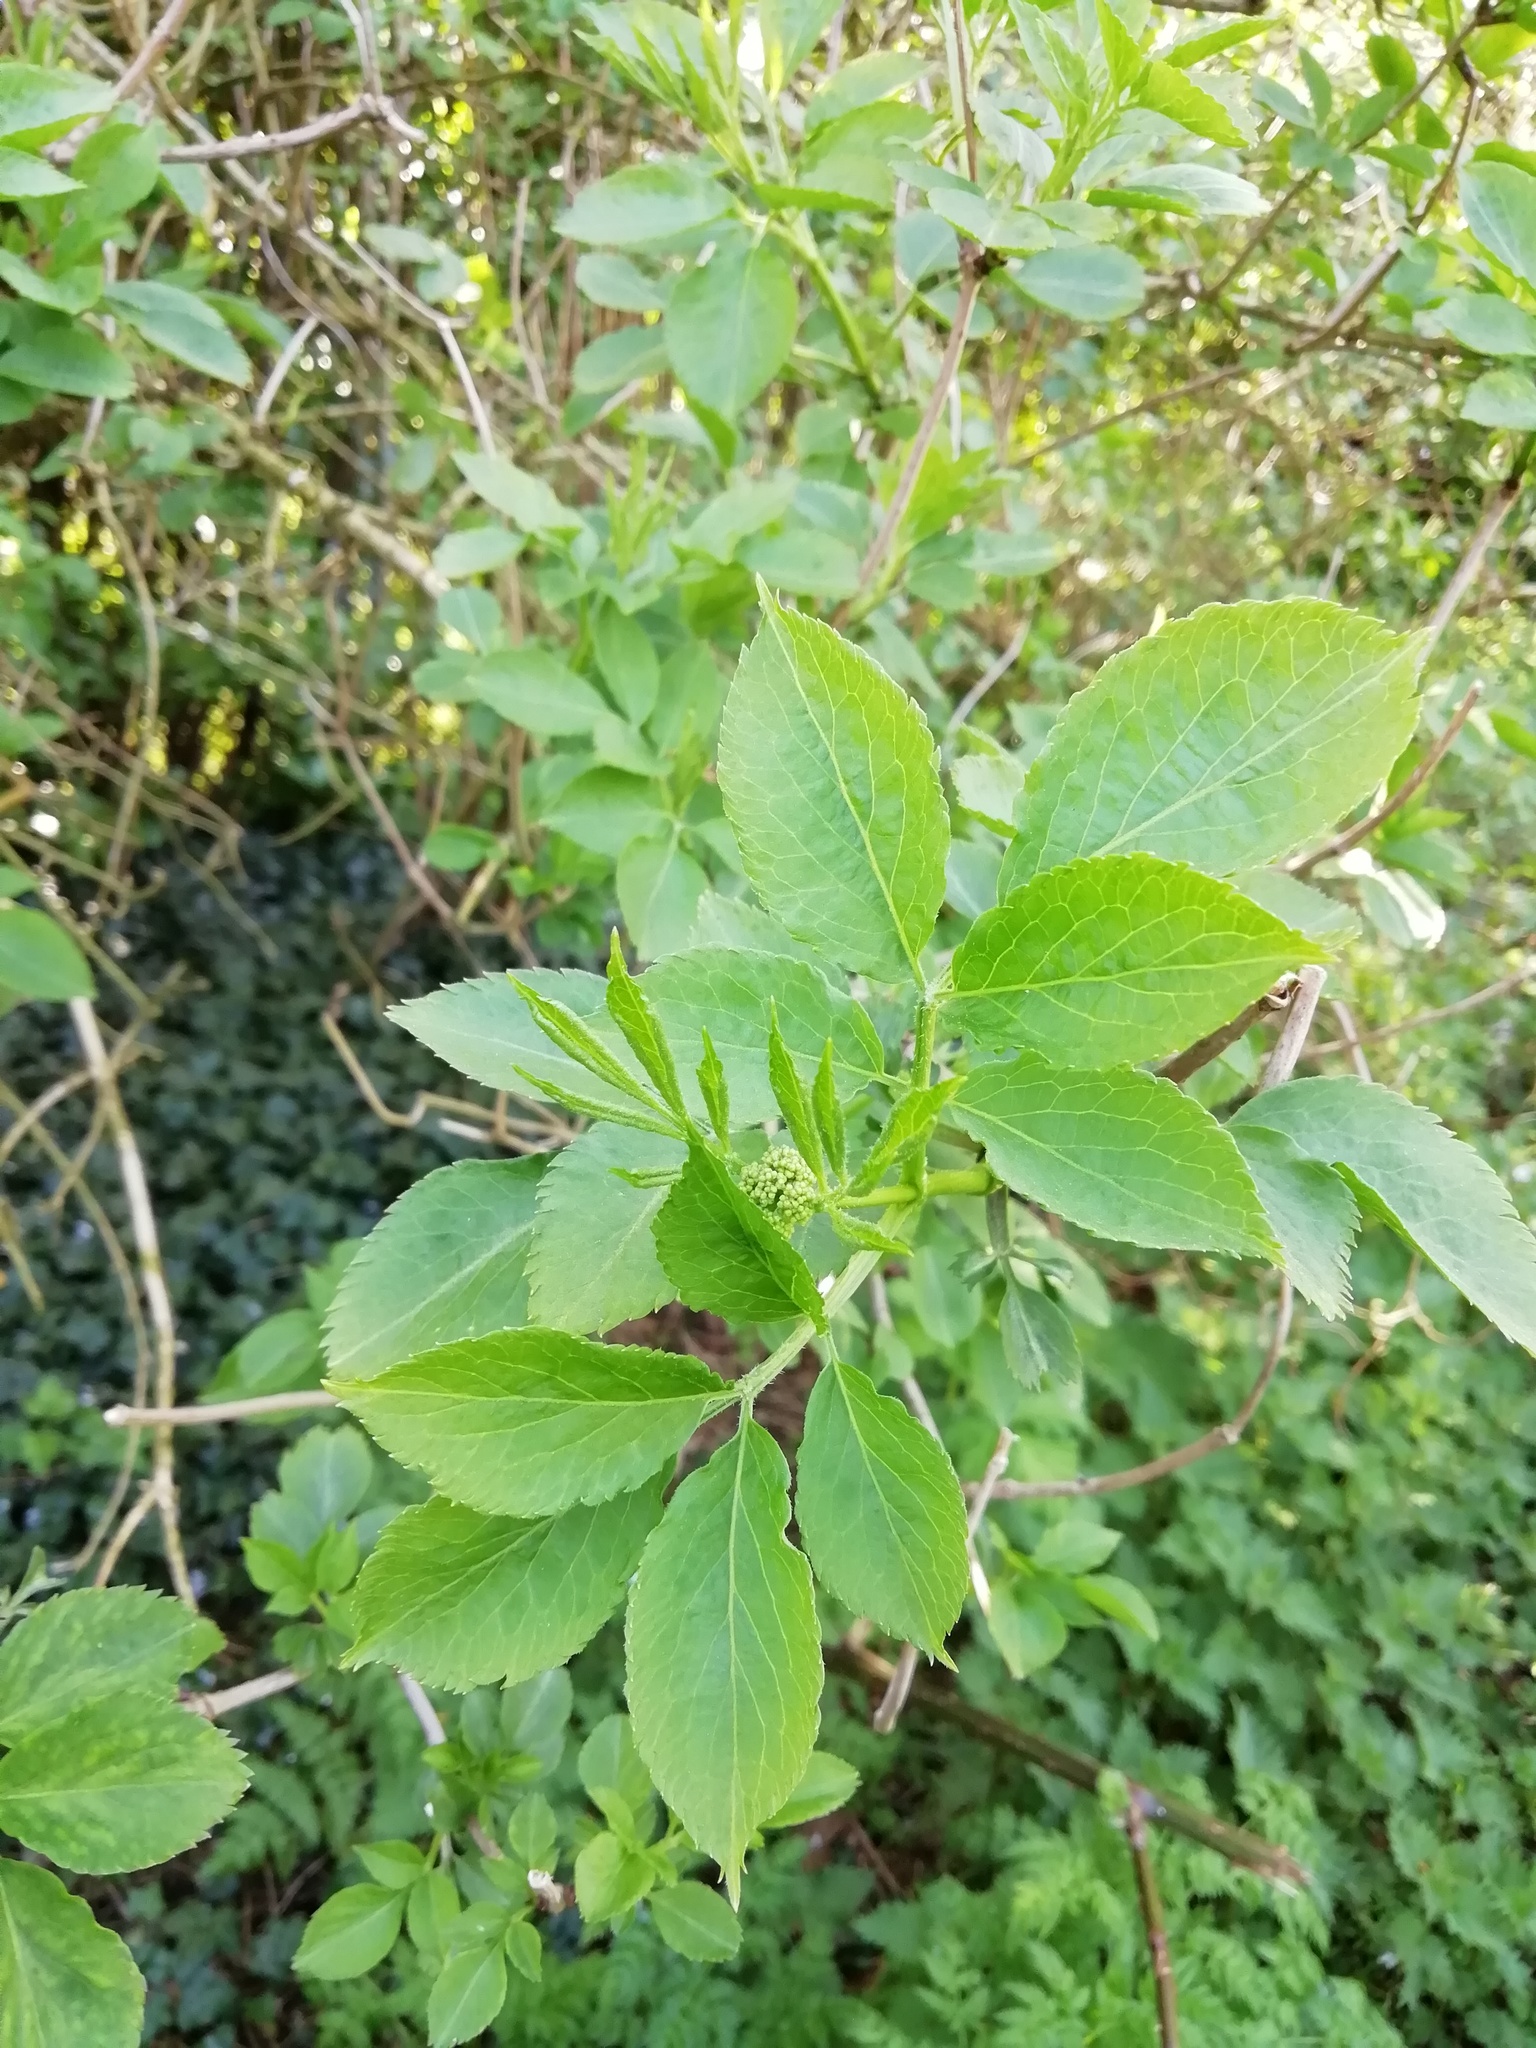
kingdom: Plantae
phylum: Tracheophyta
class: Magnoliopsida
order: Dipsacales
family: Viburnaceae
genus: Sambucus
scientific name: Sambucus nigra
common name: Elder
